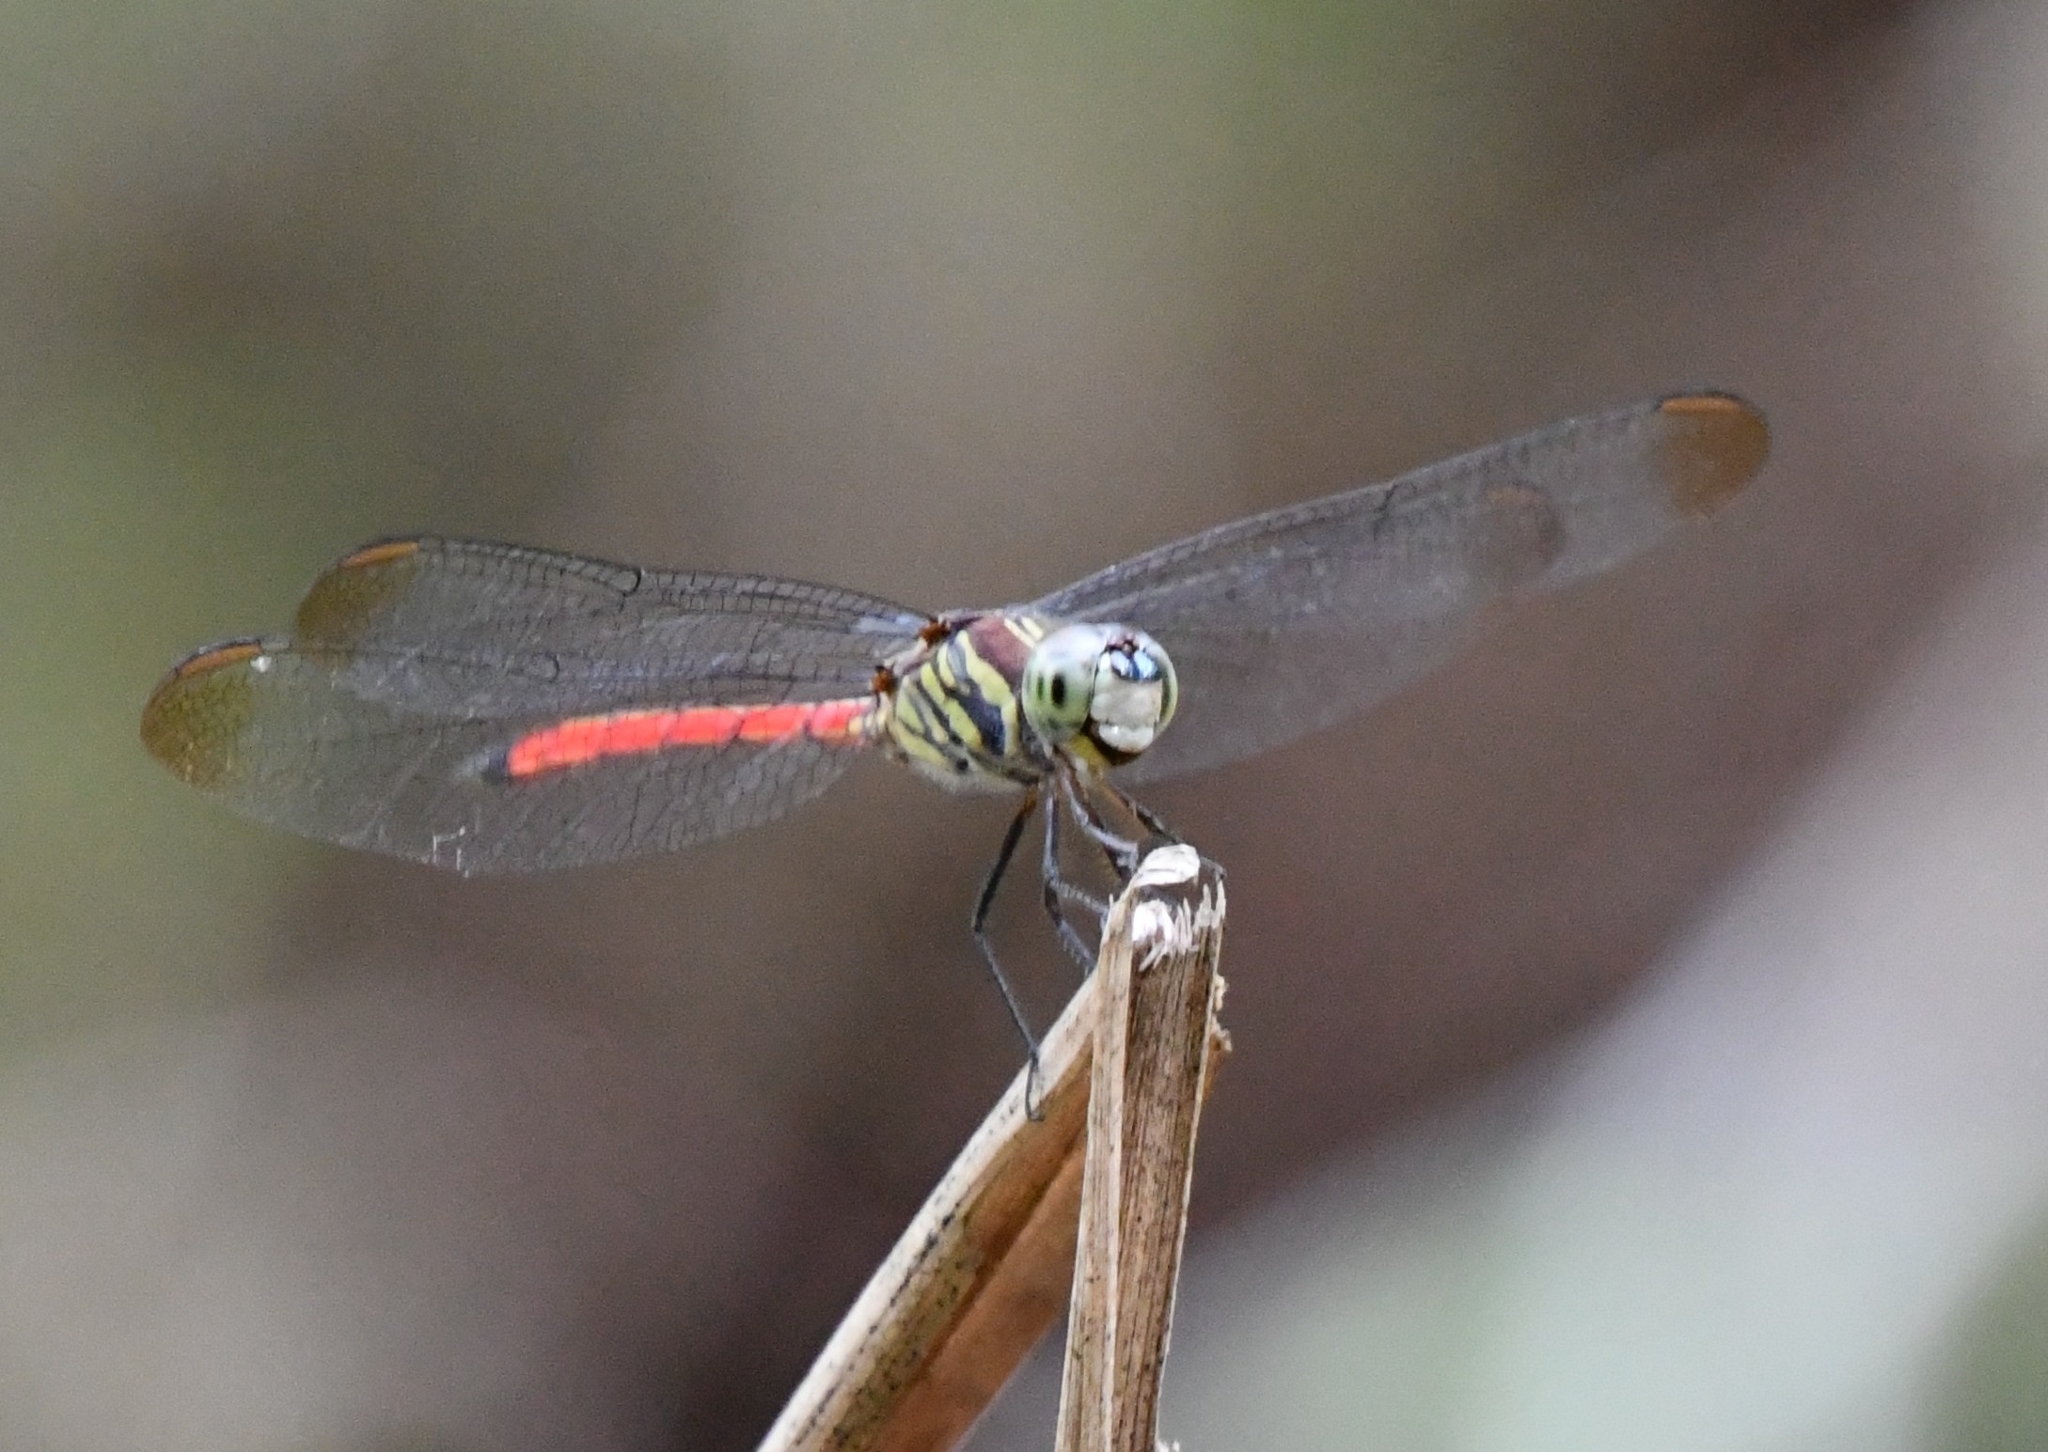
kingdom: Animalia
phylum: Arthropoda
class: Insecta
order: Odonata
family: Libellulidae
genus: Lathrecista
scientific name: Lathrecista asiatica
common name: Scarlet grenadier
